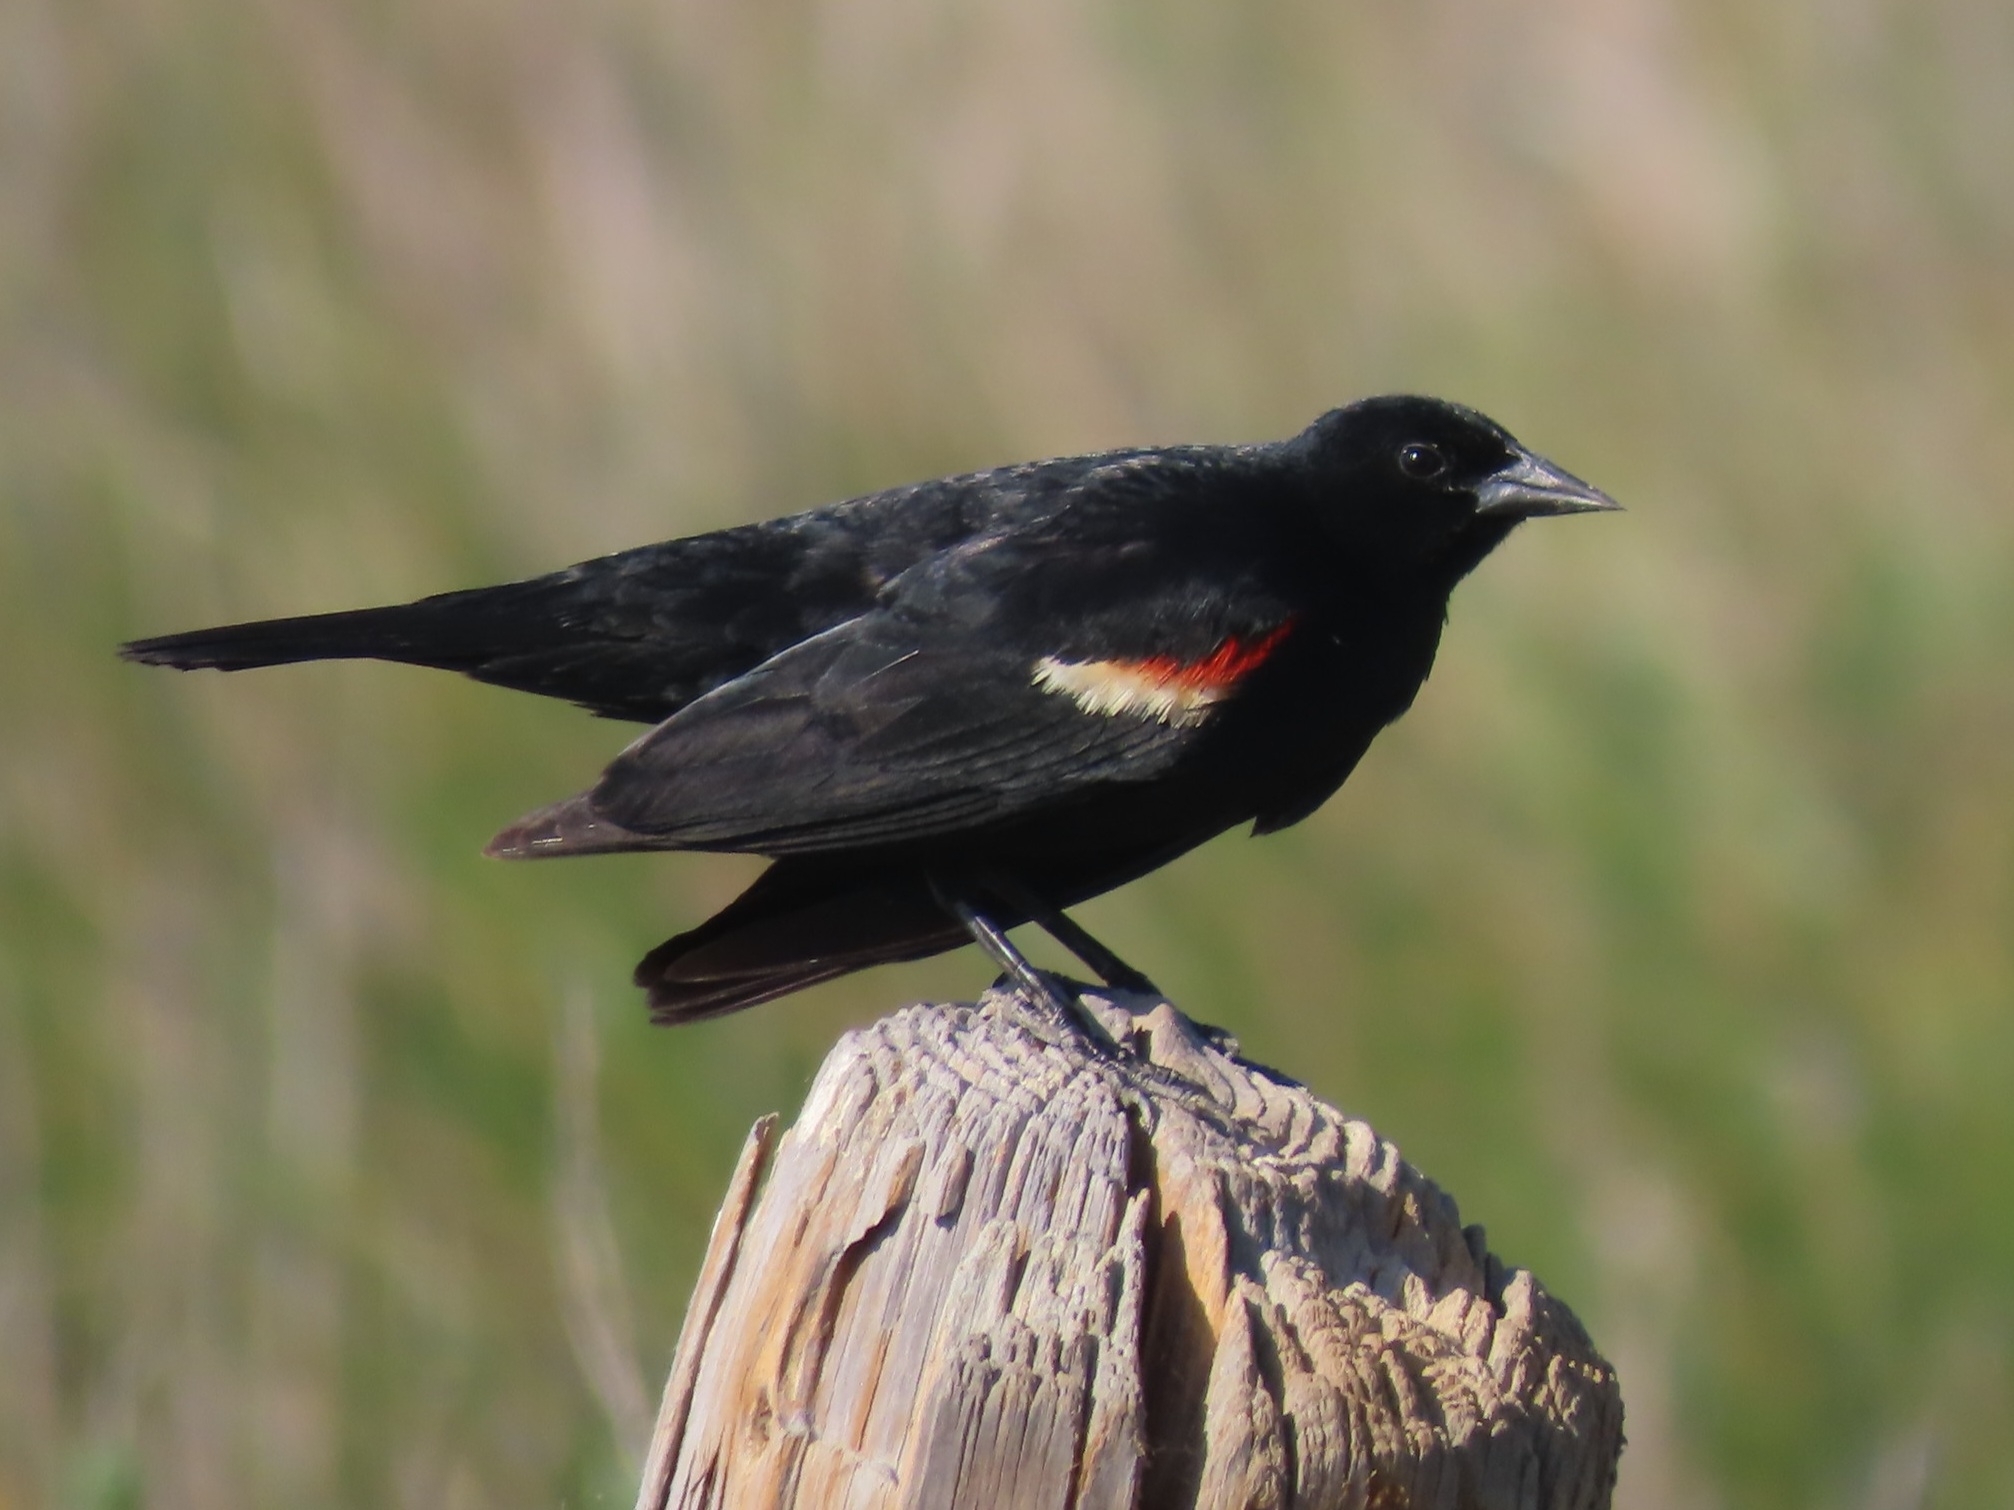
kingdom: Animalia
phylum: Chordata
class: Aves
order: Passeriformes
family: Icteridae
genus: Agelaius
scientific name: Agelaius phoeniceus
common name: Red-winged blackbird
